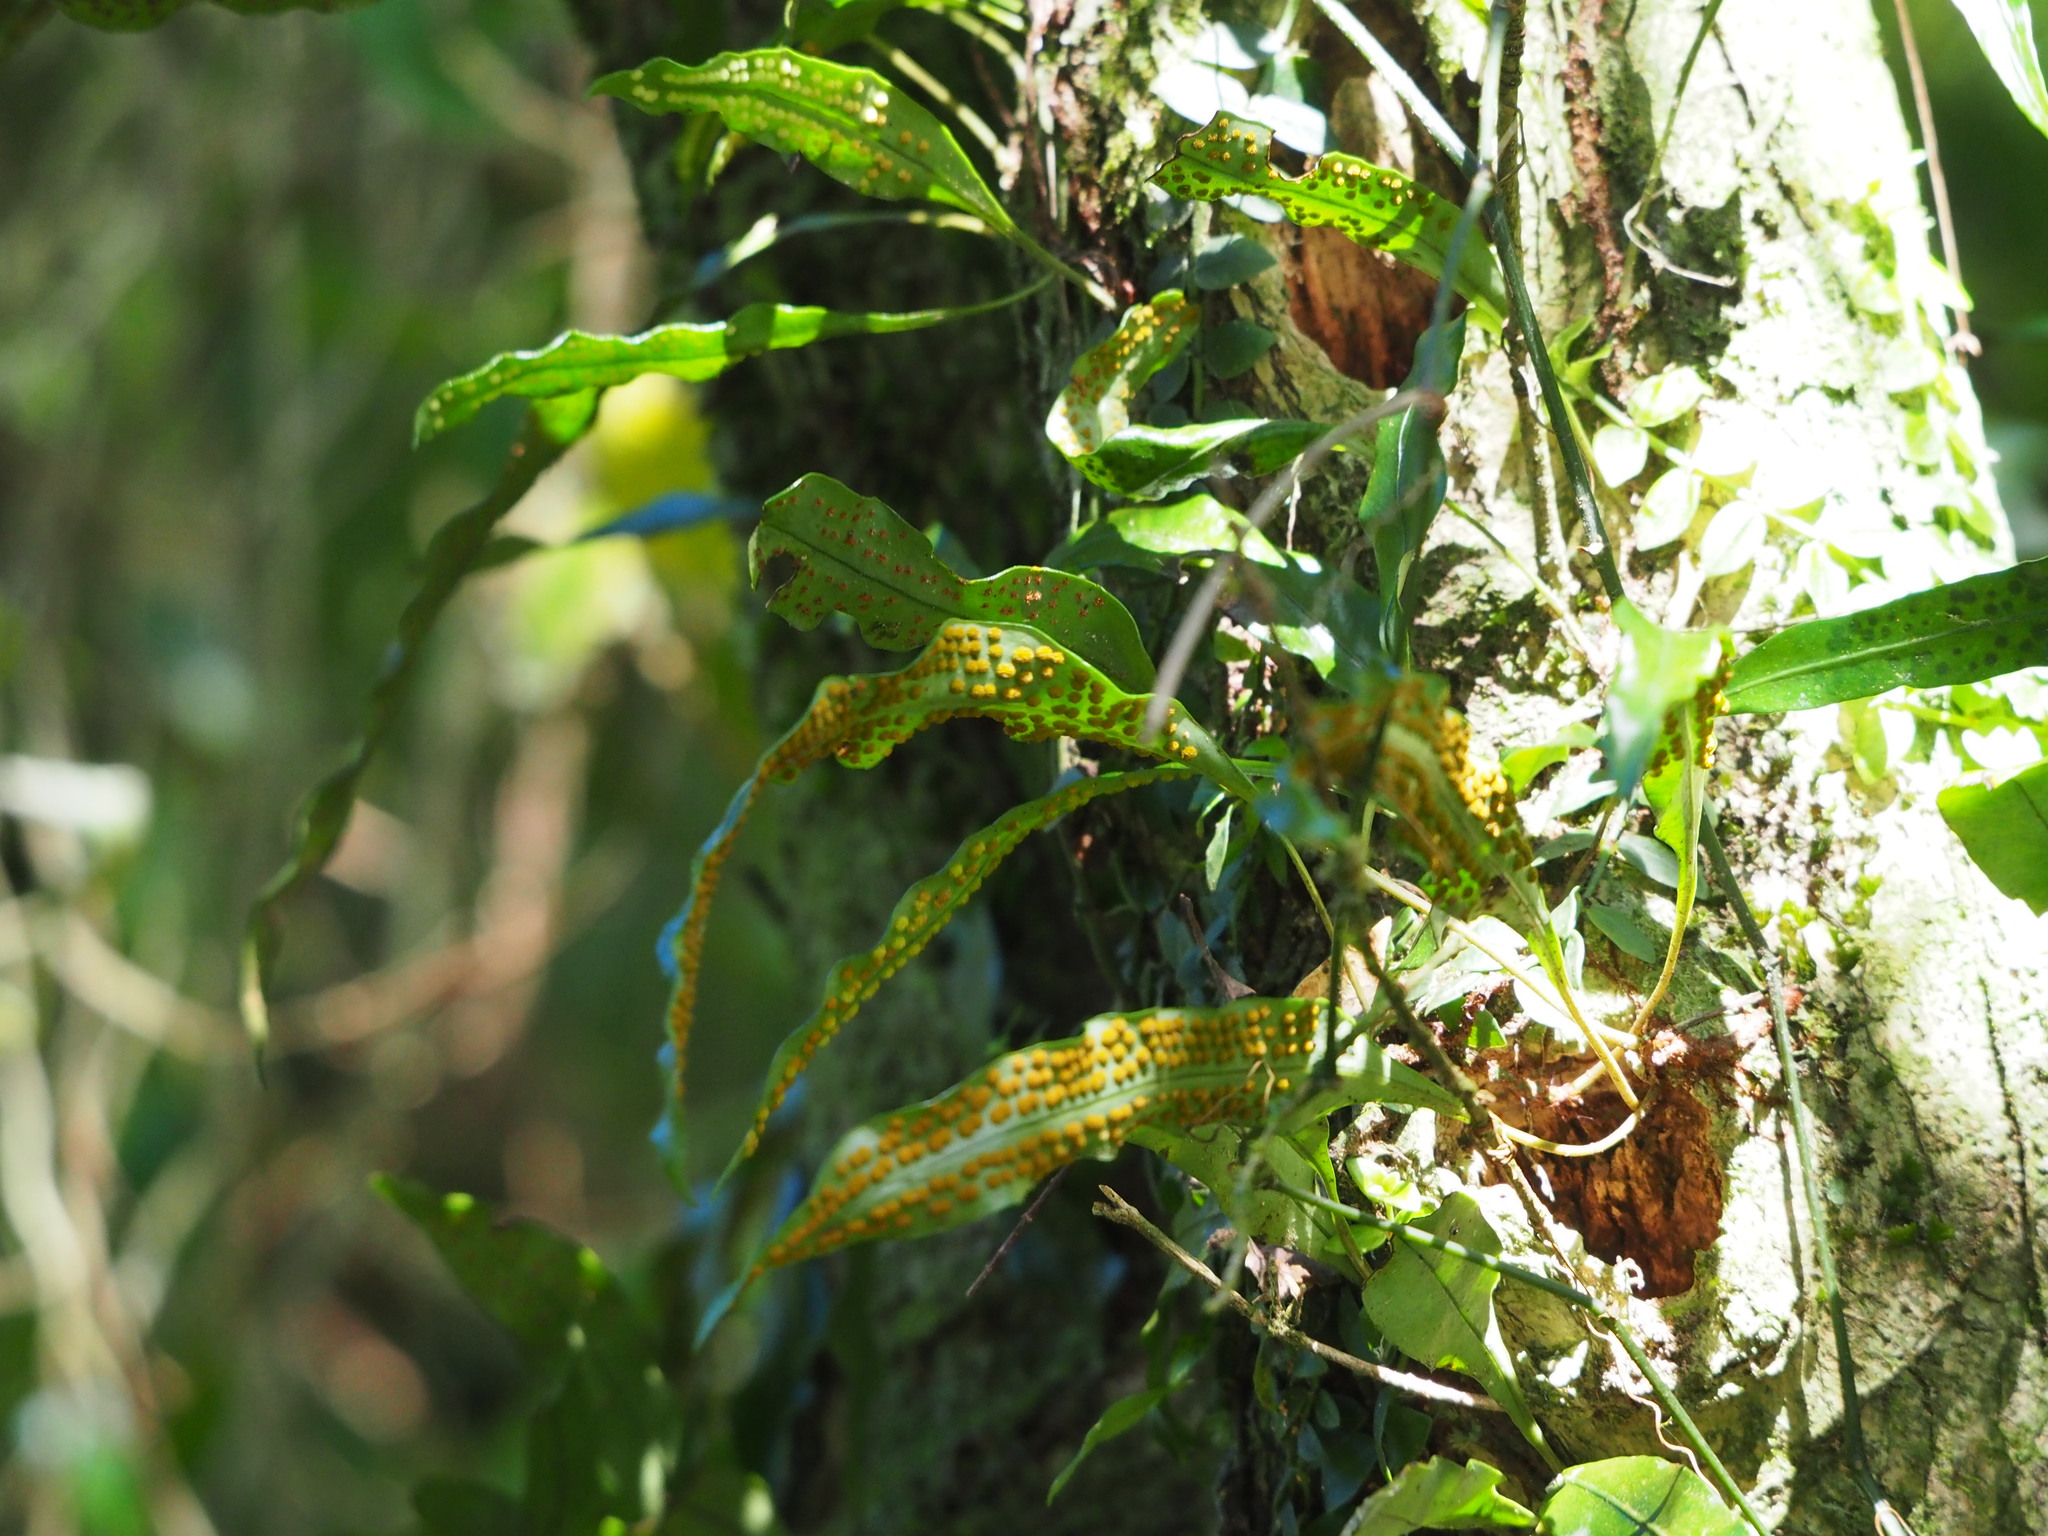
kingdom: Plantae
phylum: Tracheophyta
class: Polypodiopsida
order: Polypodiales
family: Polypodiaceae
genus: Lepisorus
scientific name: Lepisorus superficialis
